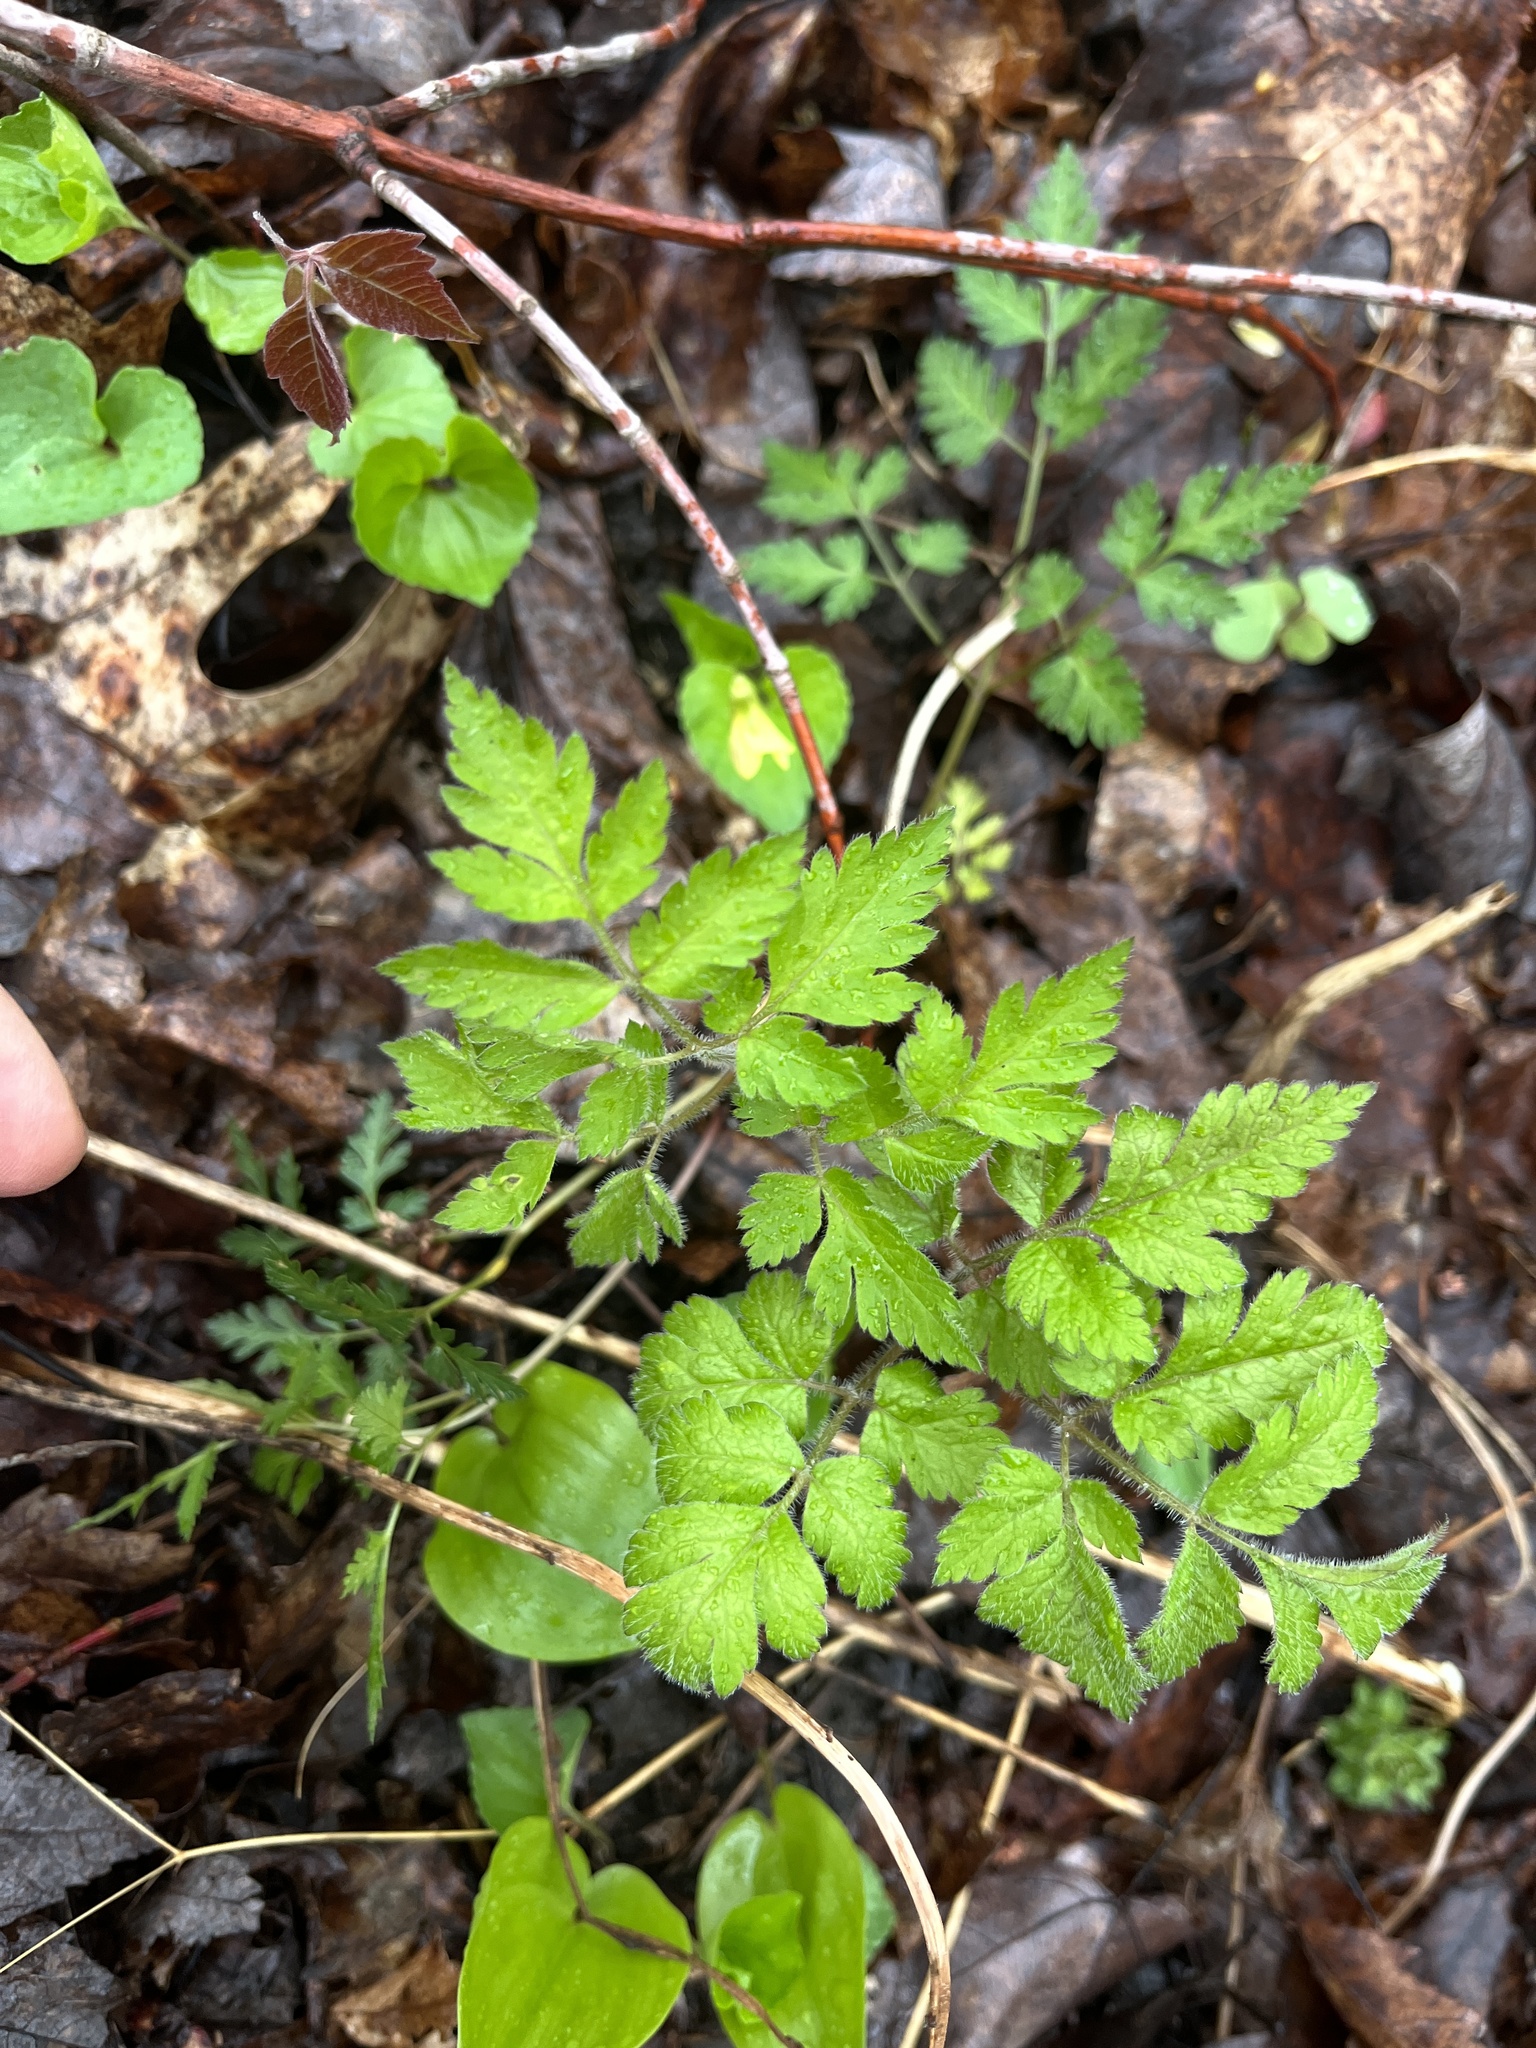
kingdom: Plantae
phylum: Tracheophyta
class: Magnoliopsida
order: Apiales
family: Apiaceae
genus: Osmorhiza
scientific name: Osmorhiza claytonii
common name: Hairy sweet cicely
